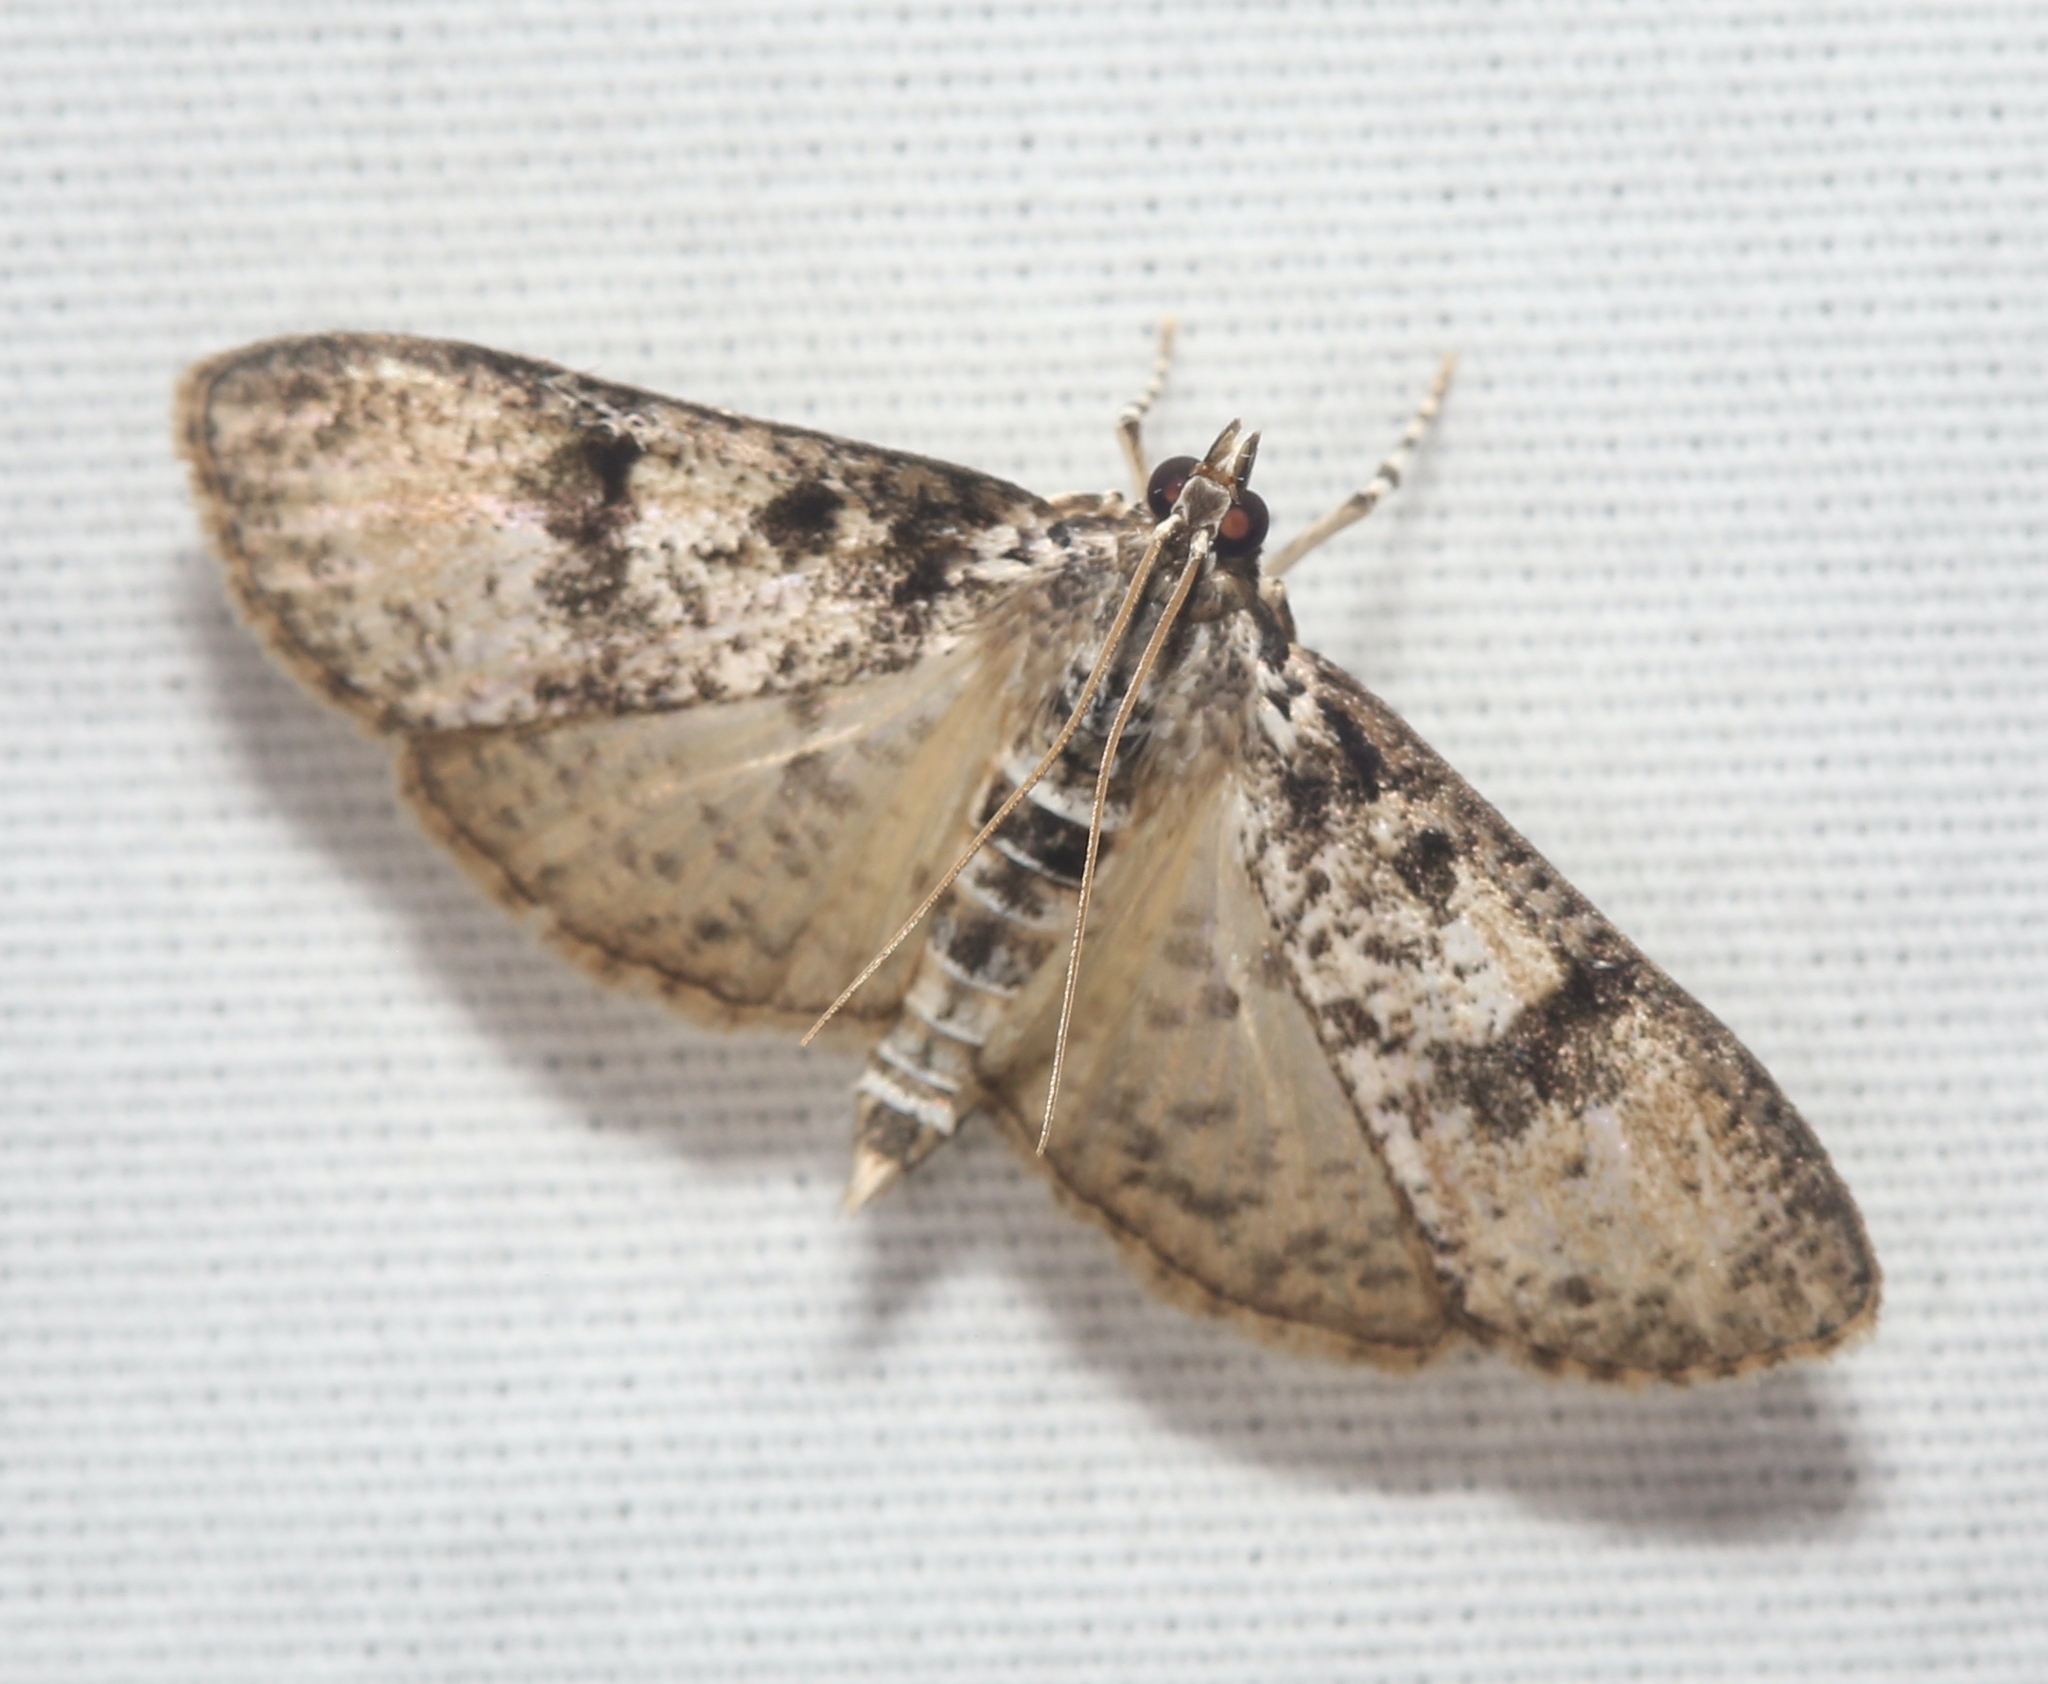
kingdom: Animalia
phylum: Arthropoda
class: Insecta
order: Lepidoptera
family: Crambidae
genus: Palpita
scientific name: Palpita magniferalis
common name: Splendid palpita moth
